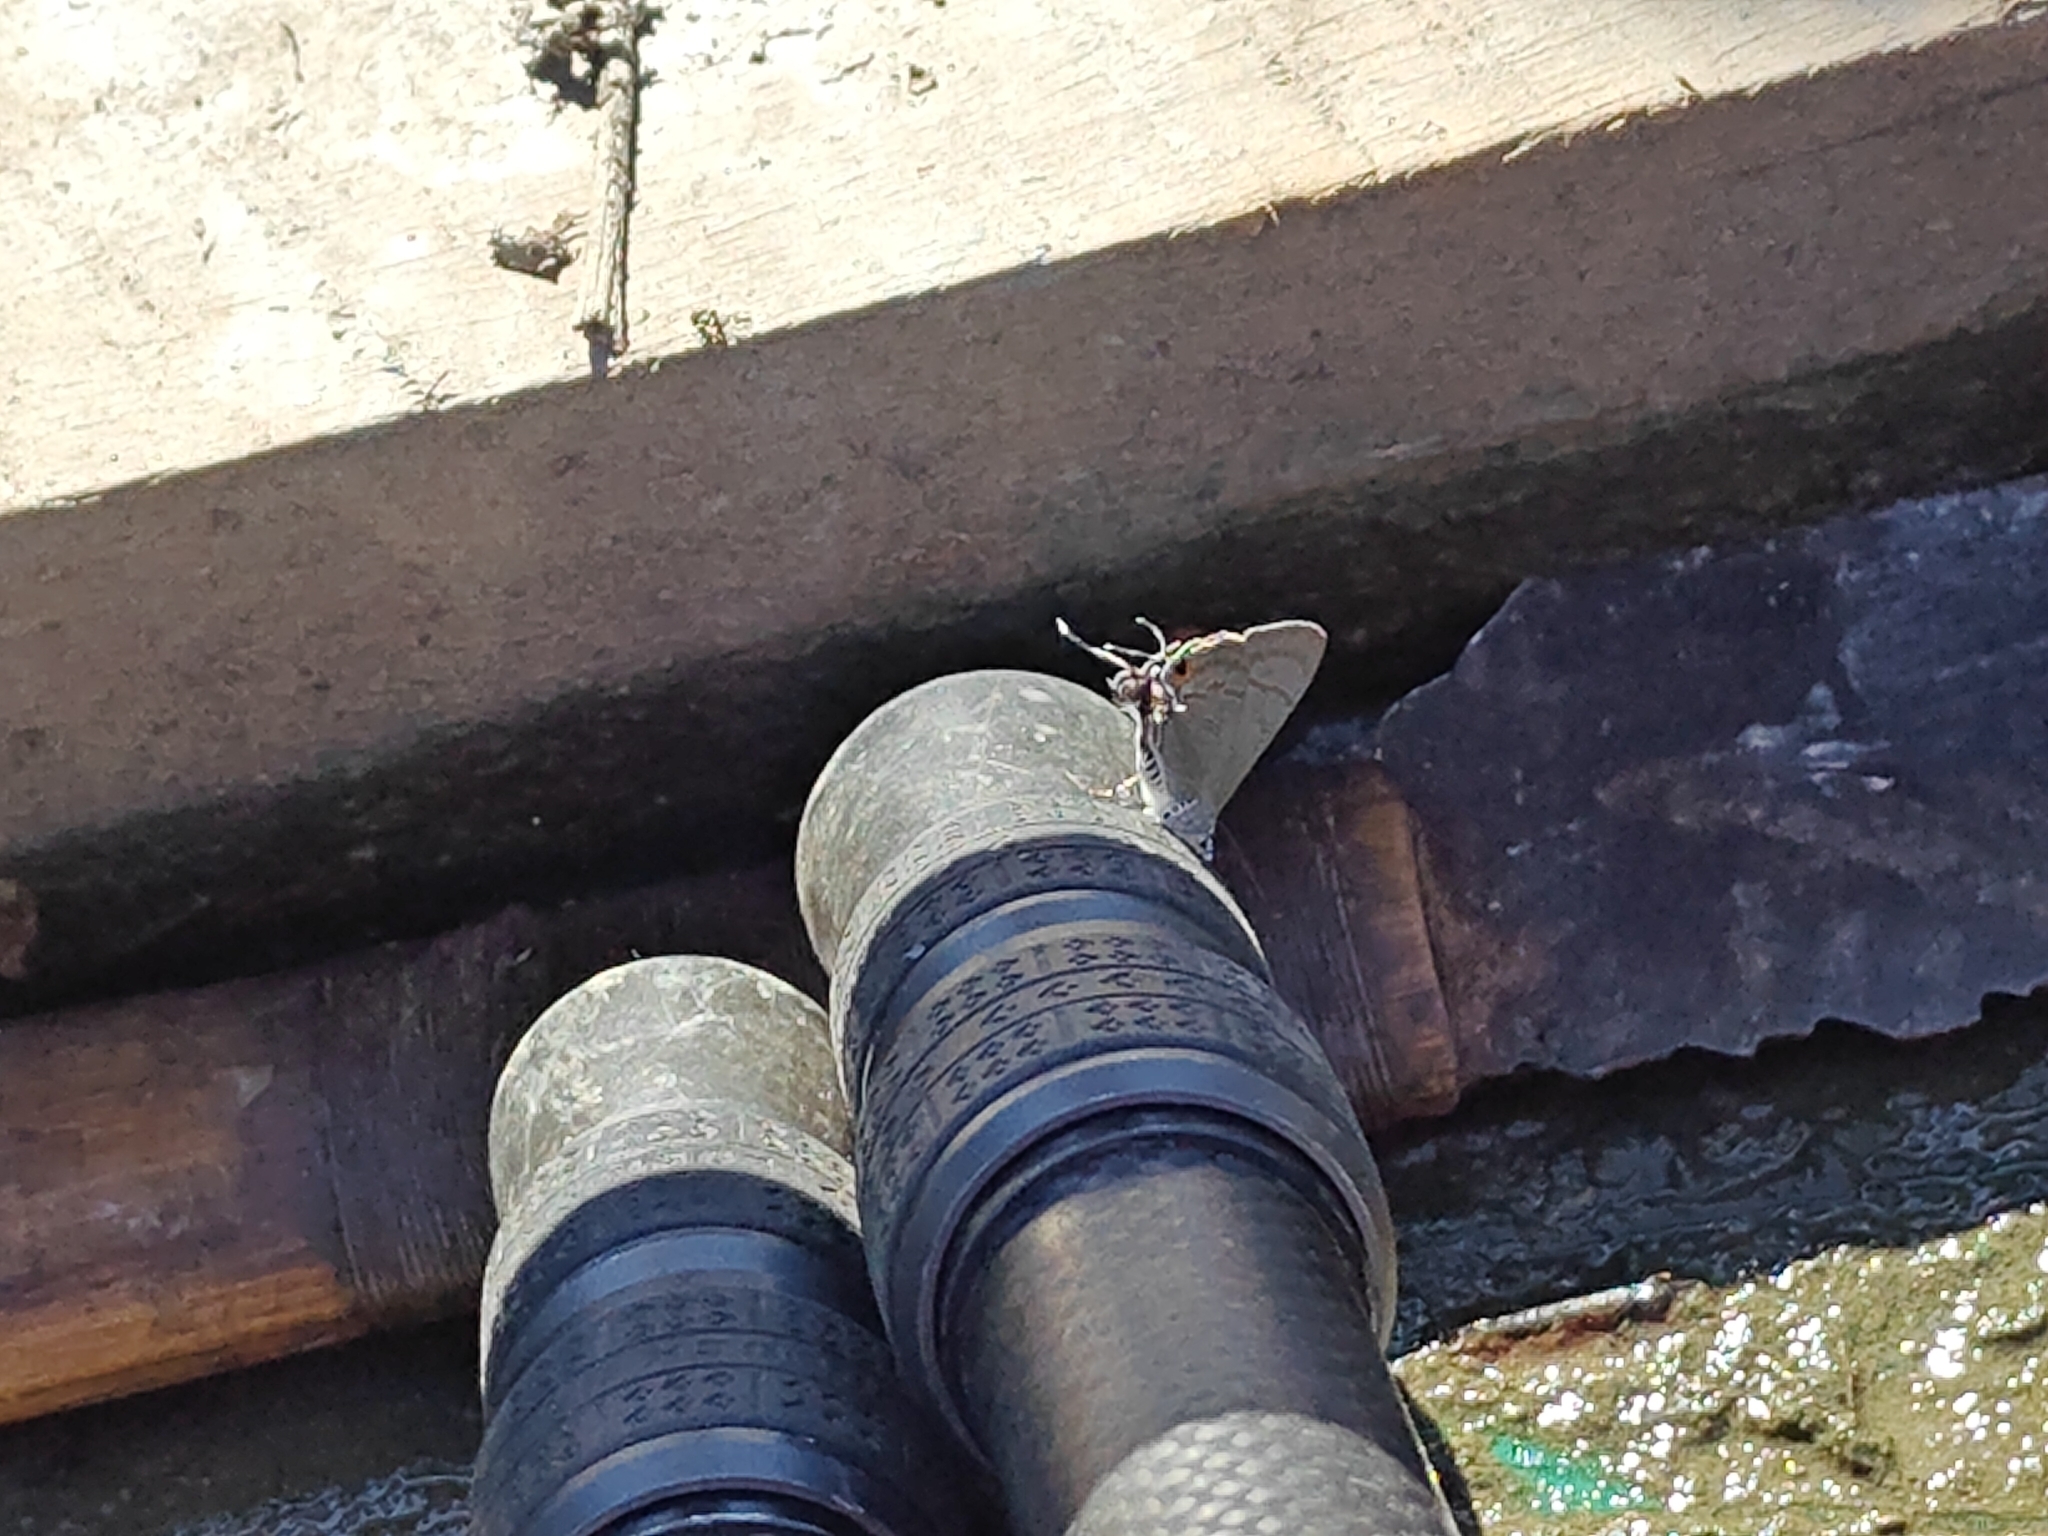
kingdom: Animalia
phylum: Arthropoda
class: Insecta
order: Lepidoptera
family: Lycaenidae
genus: Hypolycaena
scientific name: Hypolycaena erylus
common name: Common tit
